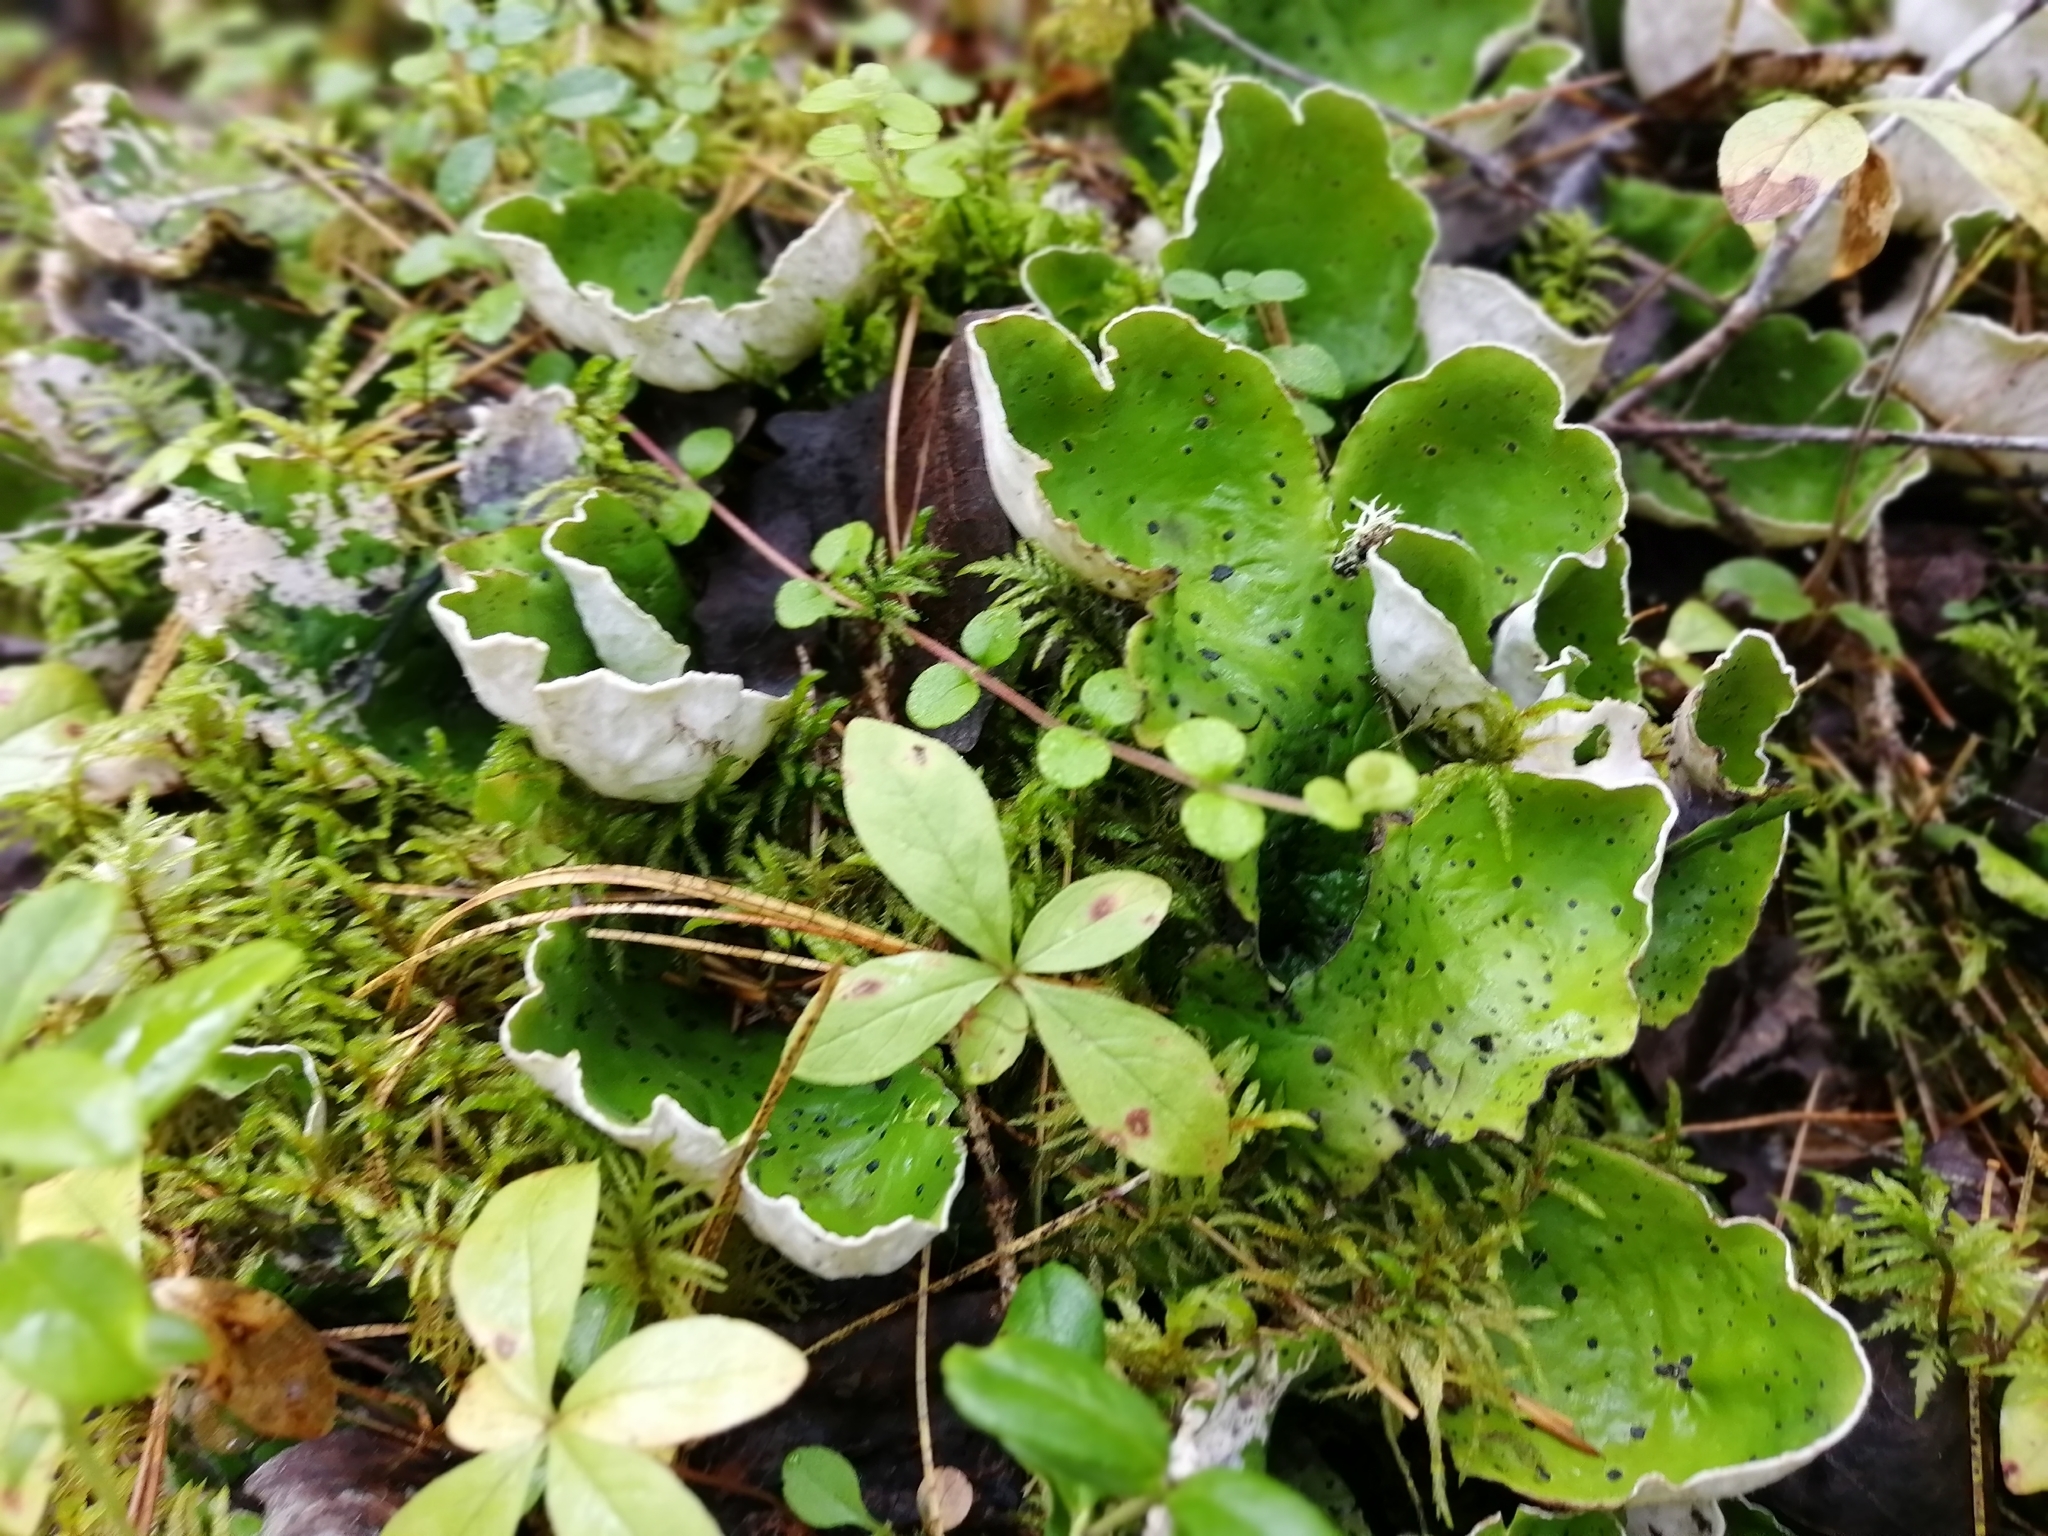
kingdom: Fungi
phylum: Ascomycota
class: Lecanoromycetes
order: Peltigerales
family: Peltigeraceae
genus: Peltigera
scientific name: Peltigera aphthosa
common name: Common freckle pelt lichen
